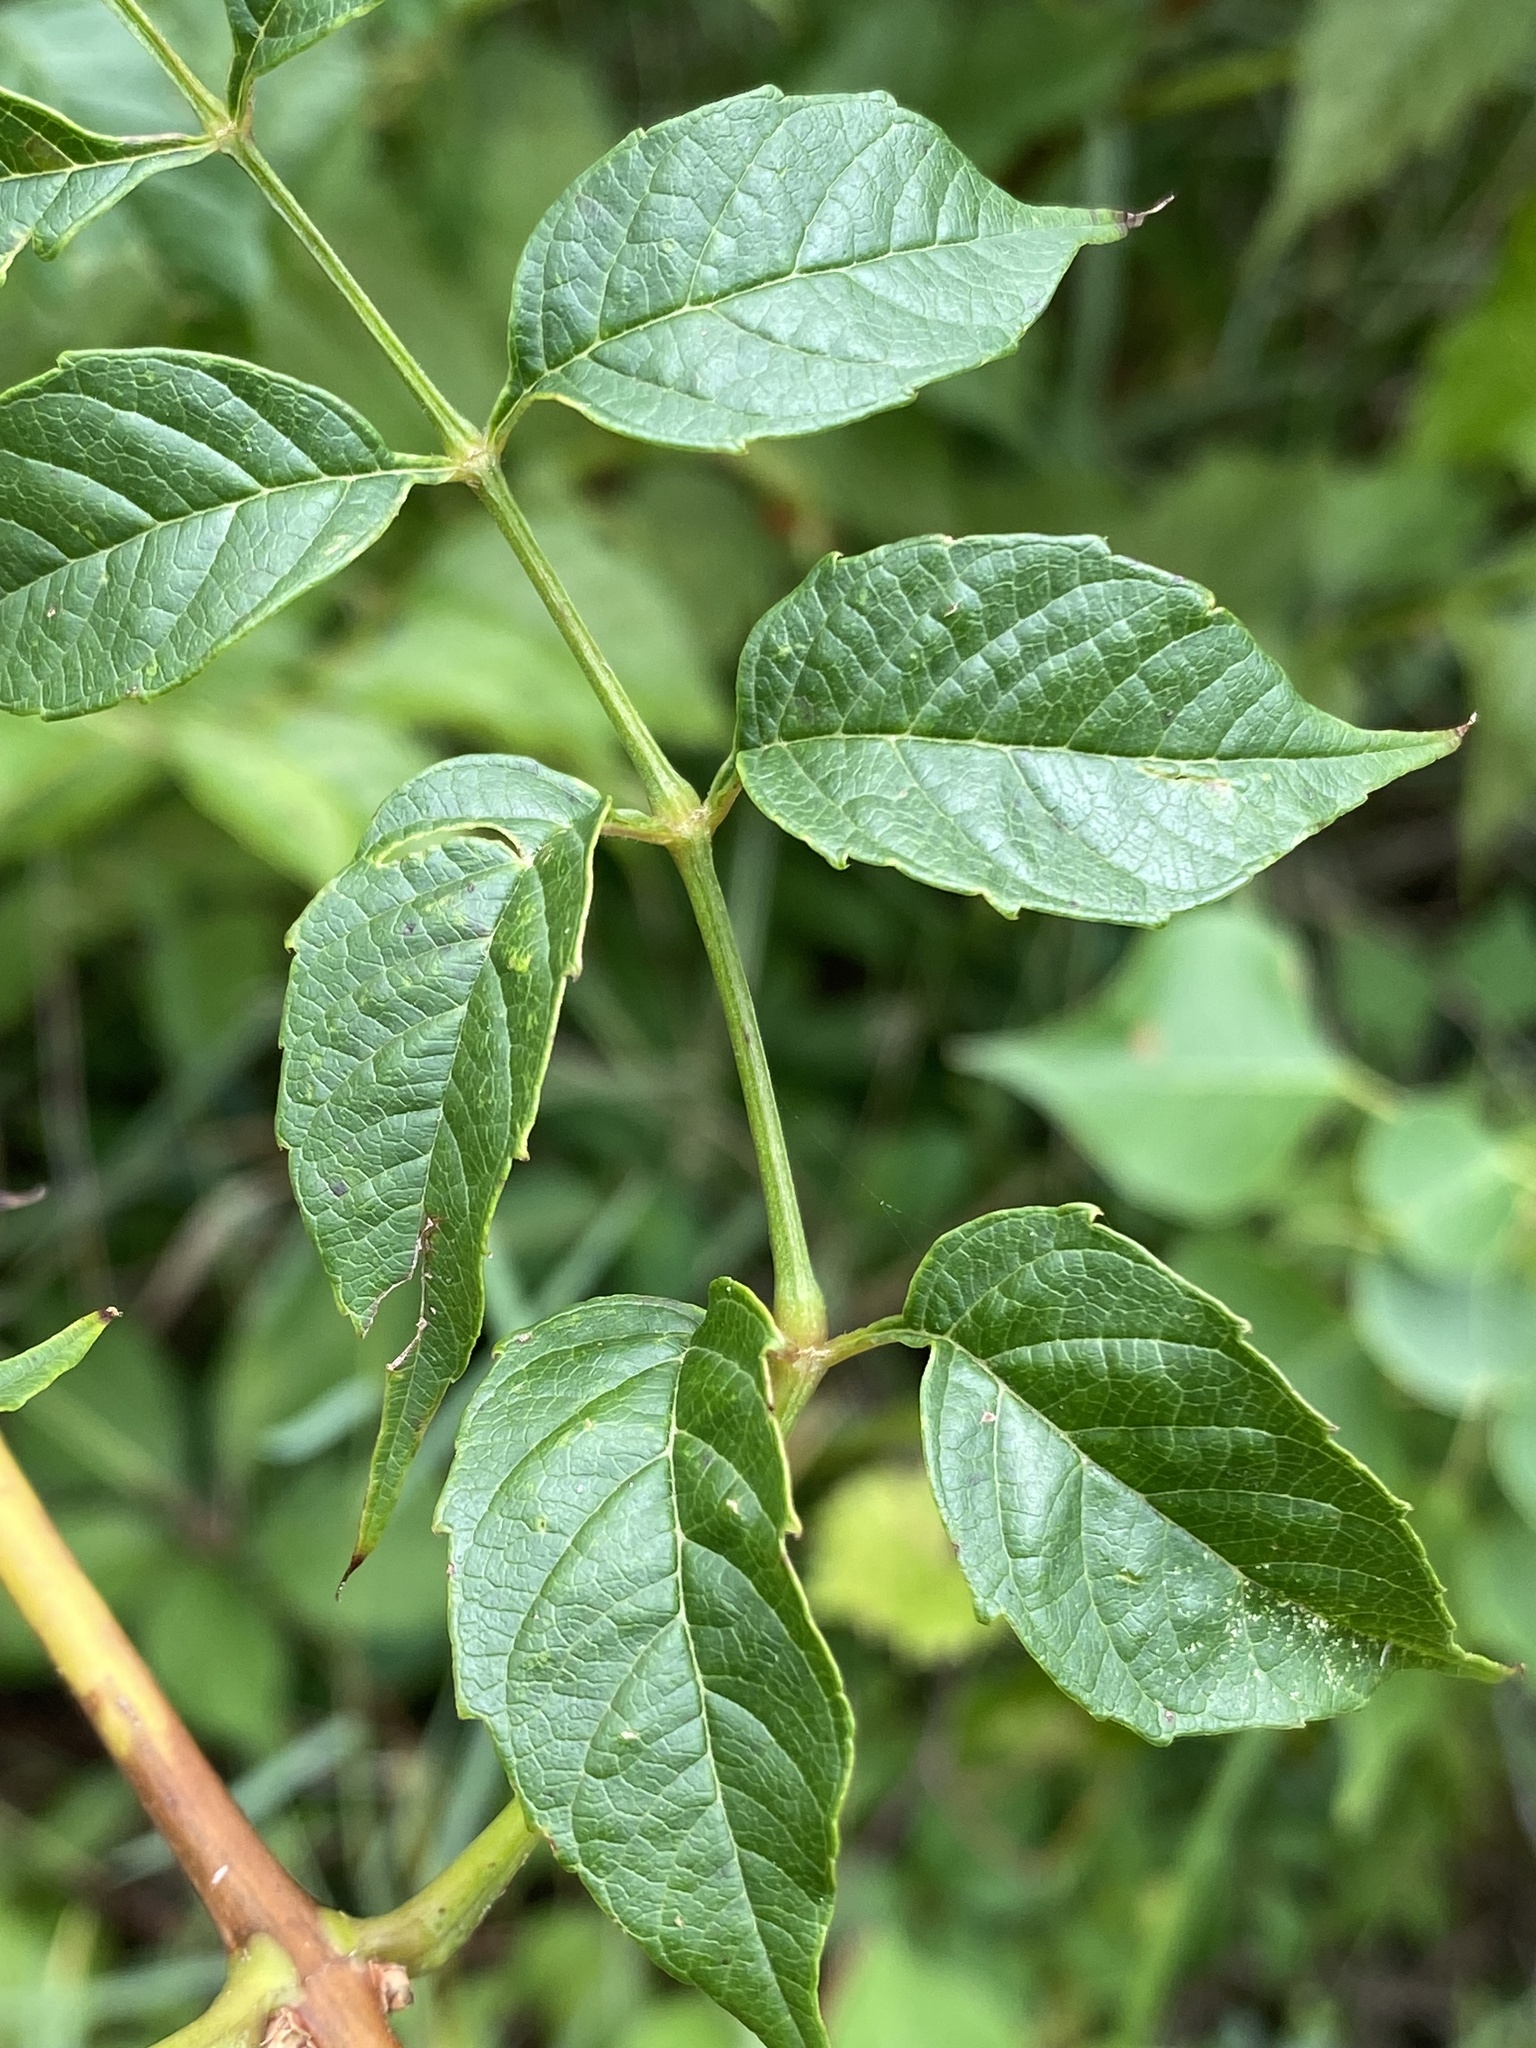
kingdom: Plantae
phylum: Tracheophyta
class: Magnoliopsida
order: Lamiales
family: Bignoniaceae
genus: Campsis
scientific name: Campsis radicans
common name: Trumpet-creeper
